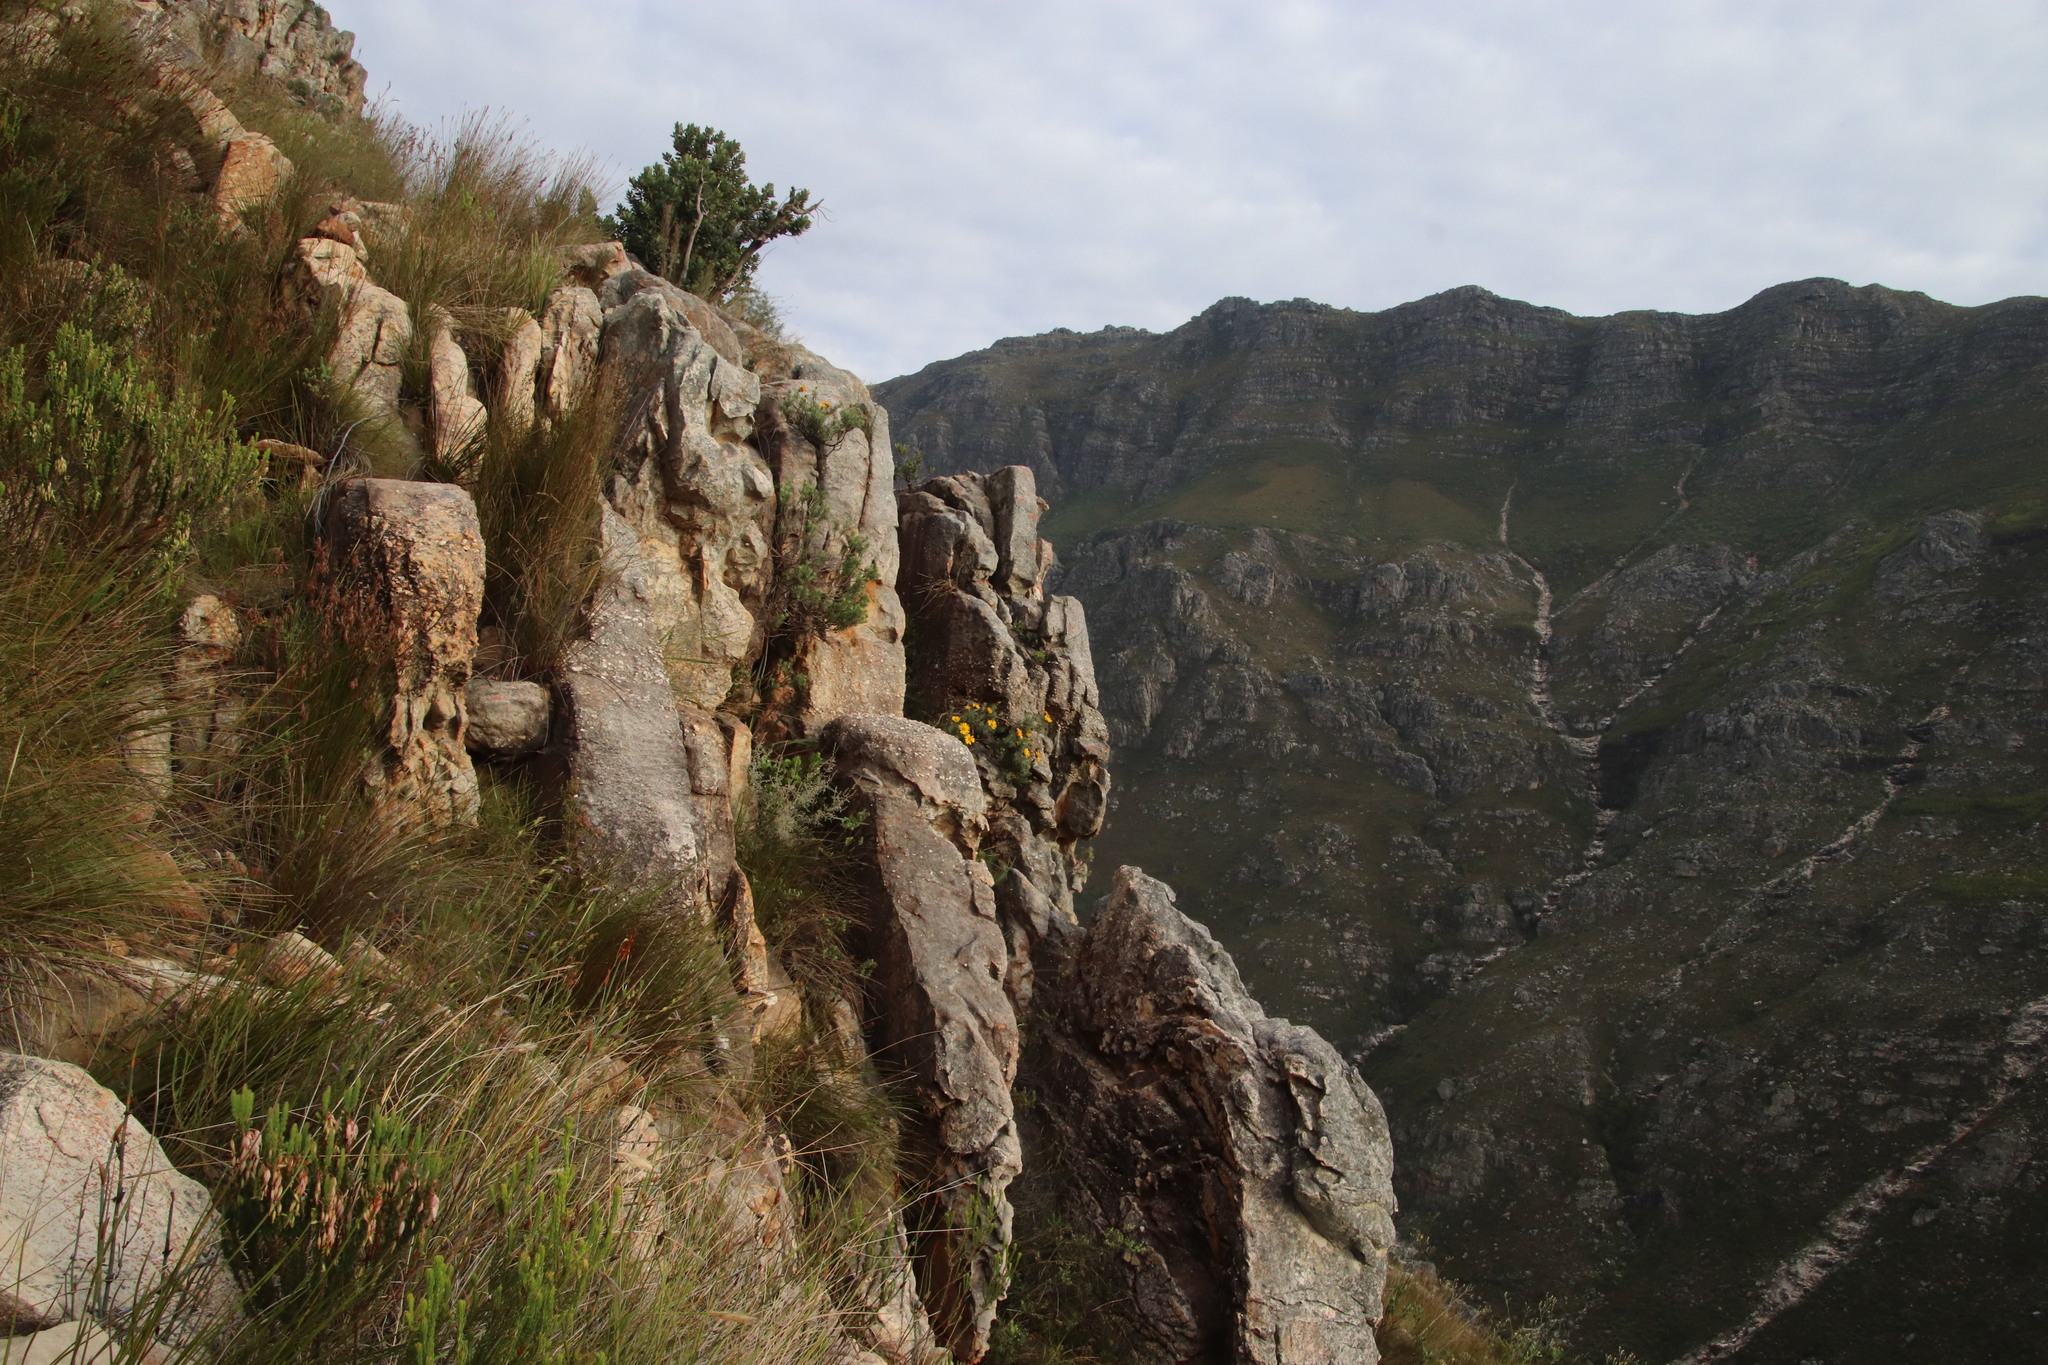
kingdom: Plantae
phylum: Tracheophyta
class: Magnoliopsida
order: Asterales
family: Asteraceae
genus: Heterolepis
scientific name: Heterolepis aliena
